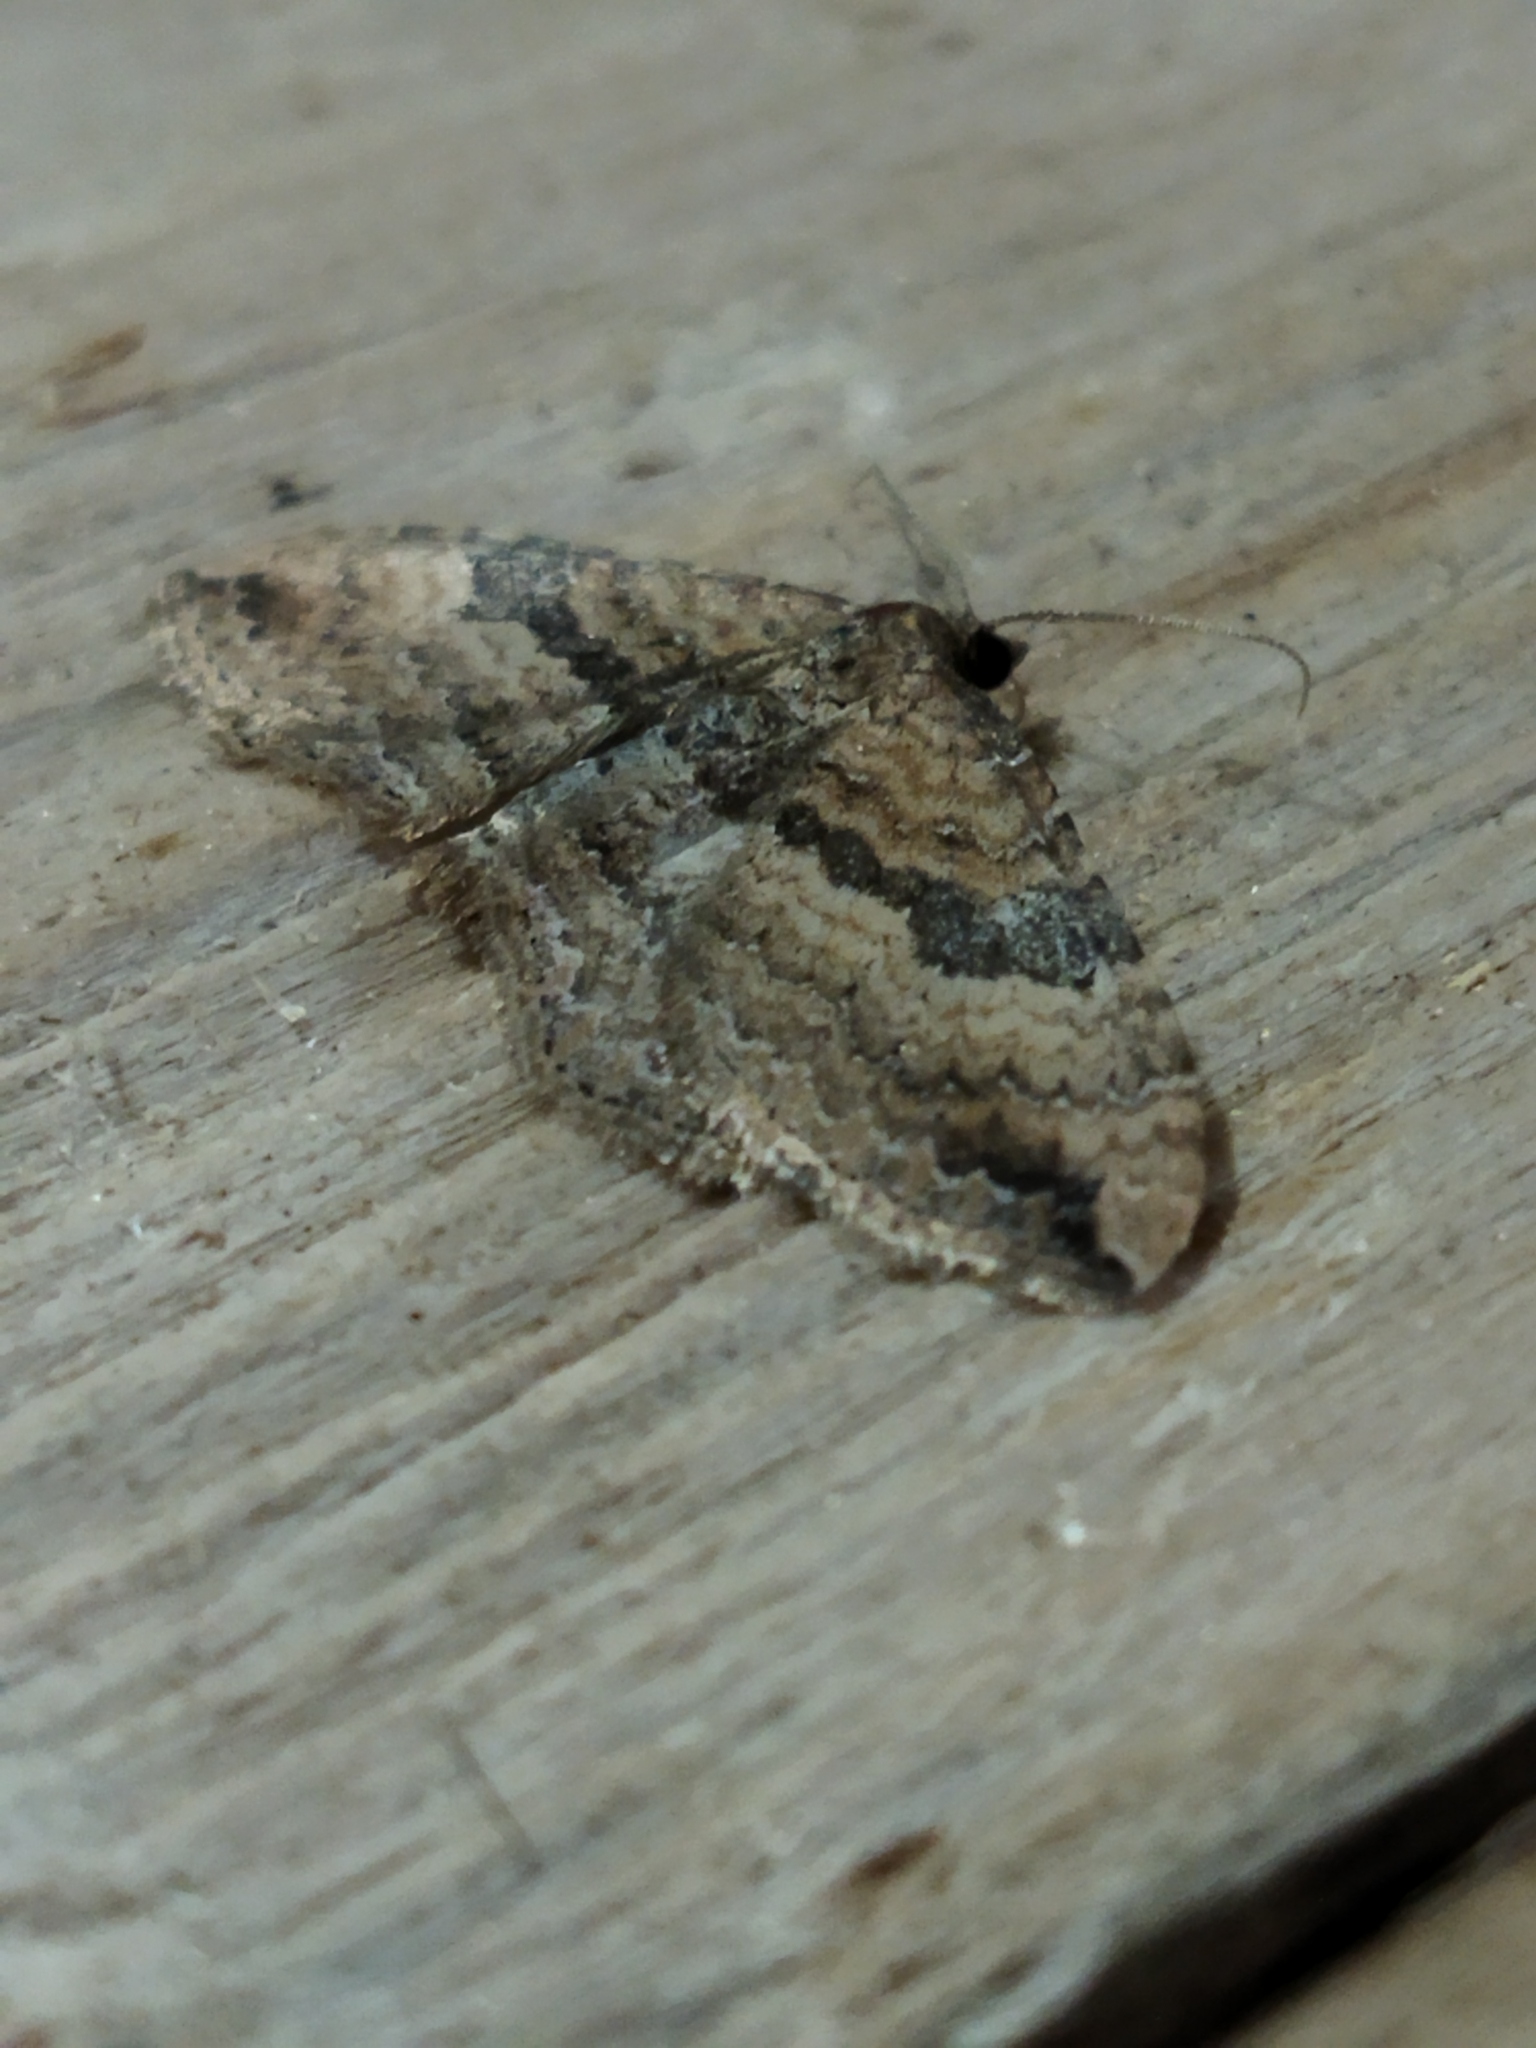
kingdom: Animalia
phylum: Arthropoda
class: Insecta
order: Lepidoptera
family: Geometridae
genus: Orthonama
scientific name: Orthonama obstipata
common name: The gem
